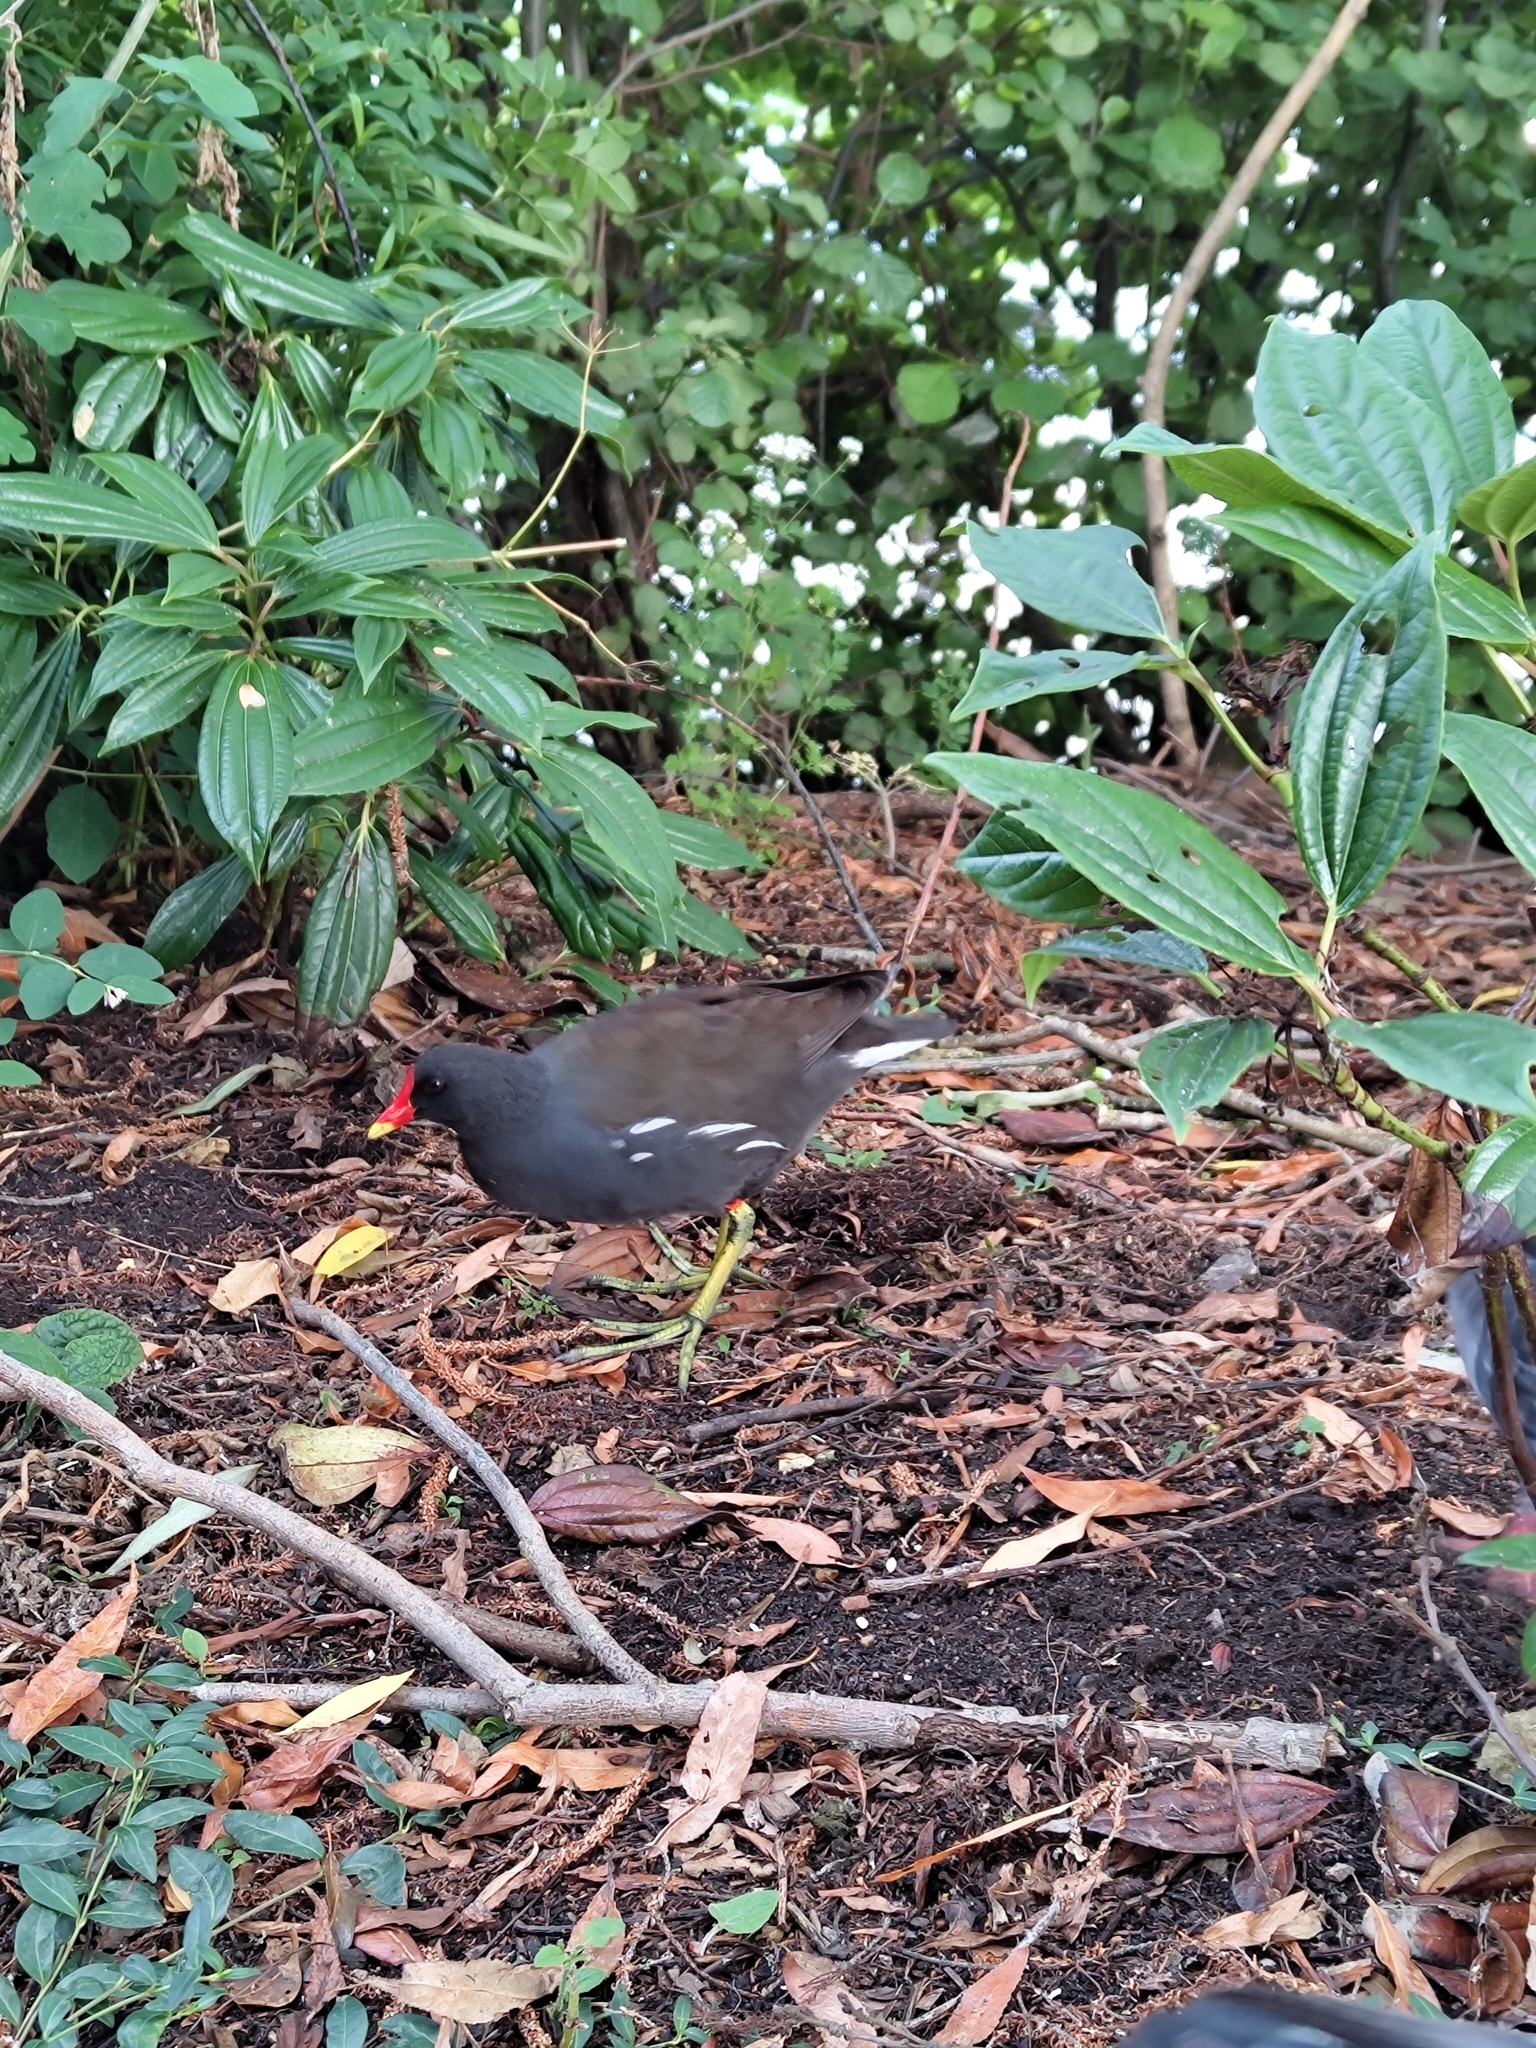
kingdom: Animalia
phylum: Chordata
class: Aves
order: Gruiformes
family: Rallidae
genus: Gallinula
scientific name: Gallinula chloropus
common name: Common moorhen
